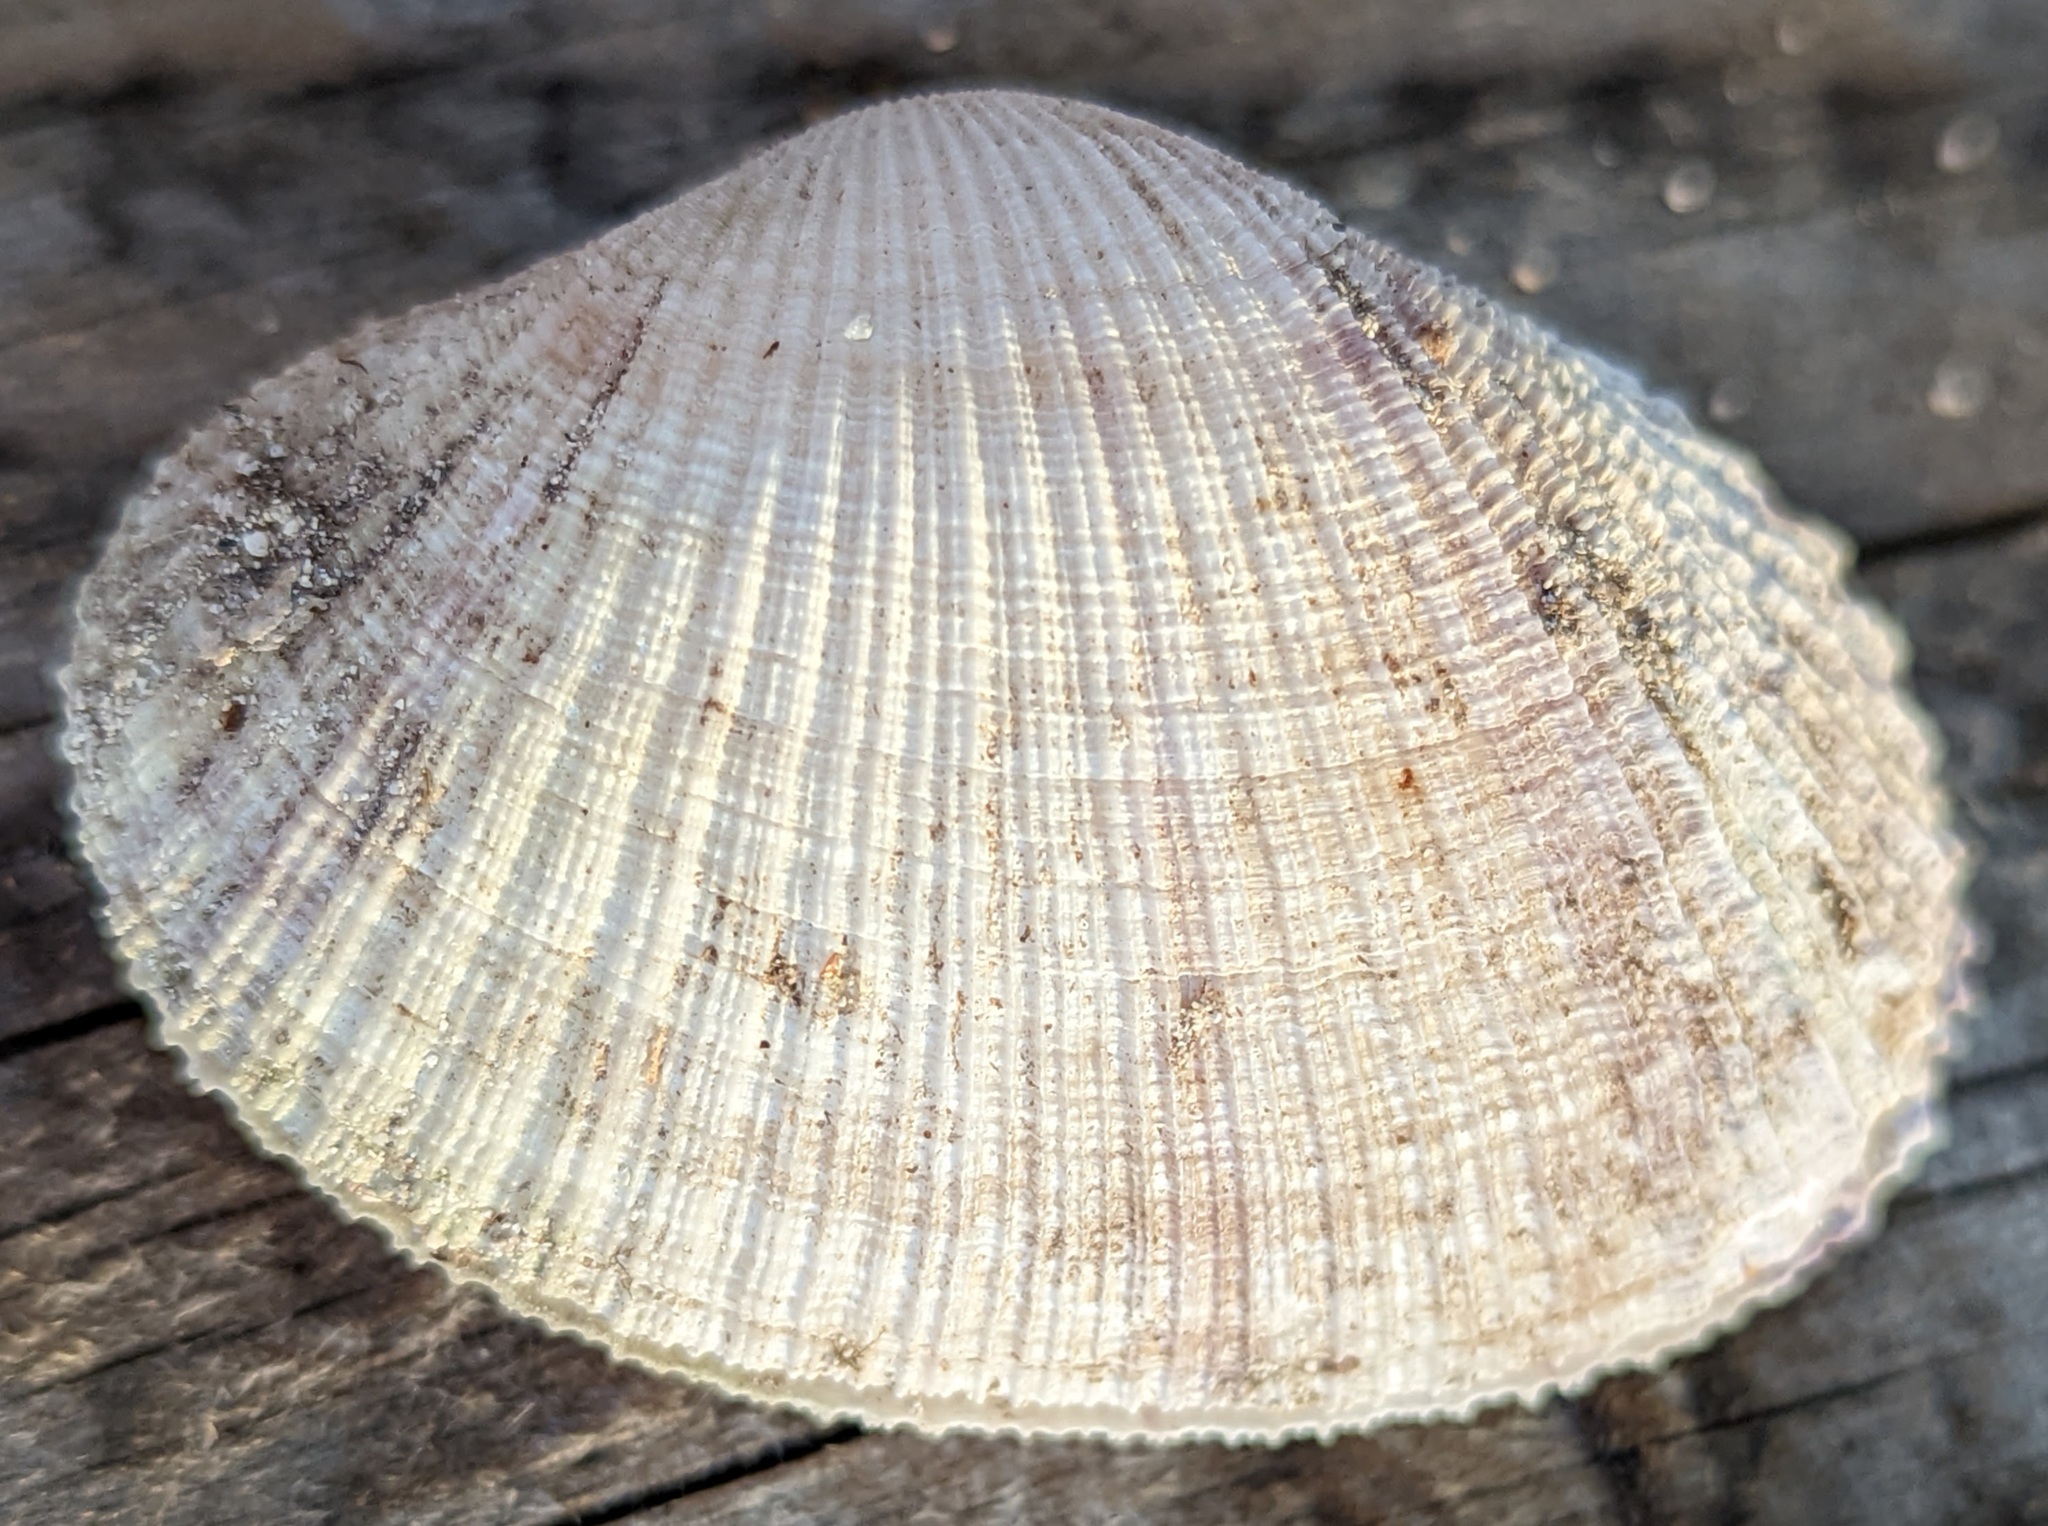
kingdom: Animalia
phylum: Mollusca
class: Bivalvia
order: Cardiida
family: Psammobiidae
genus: Asaphis
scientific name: Asaphis violascens
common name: Pacific asaphis
